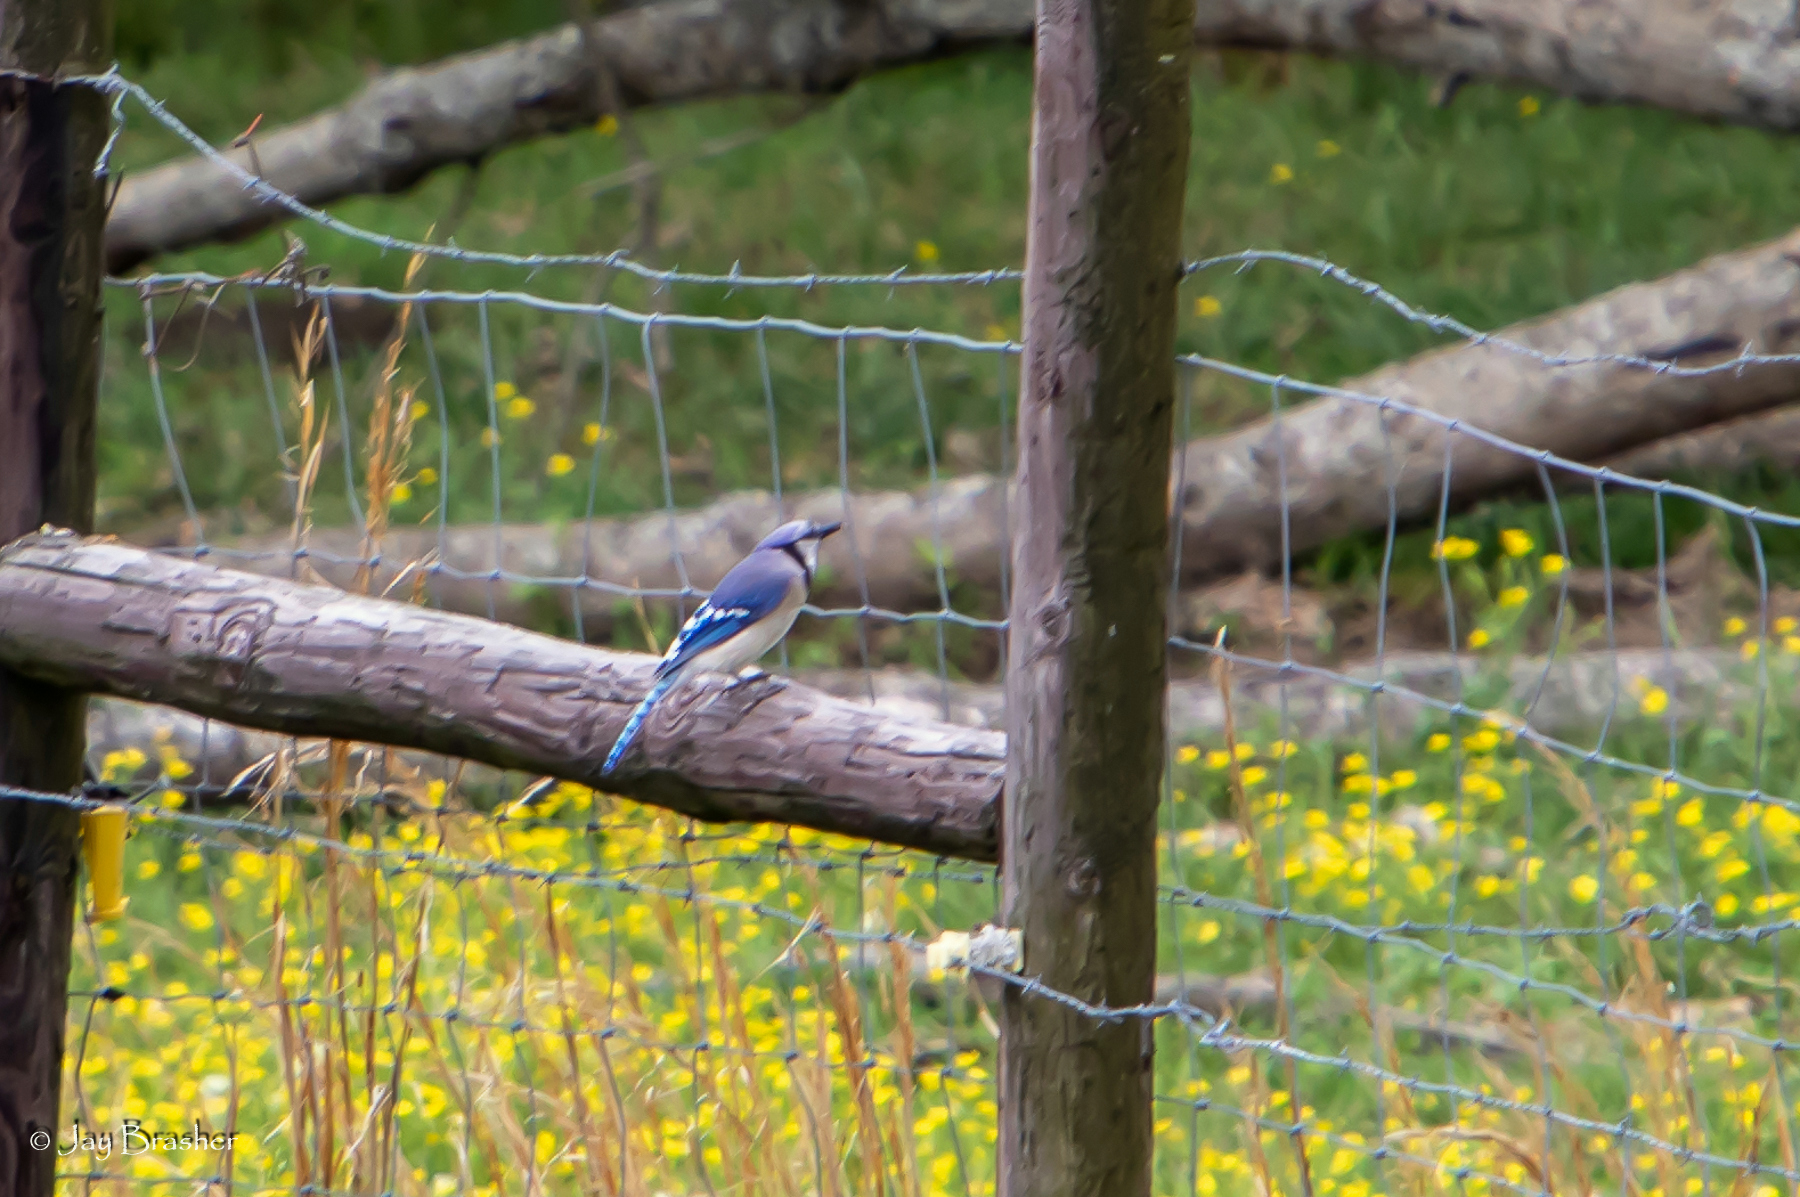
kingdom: Animalia
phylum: Chordata
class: Aves
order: Passeriformes
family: Corvidae
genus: Cyanocitta
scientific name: Cyanocitta cristata
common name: Blue jay
